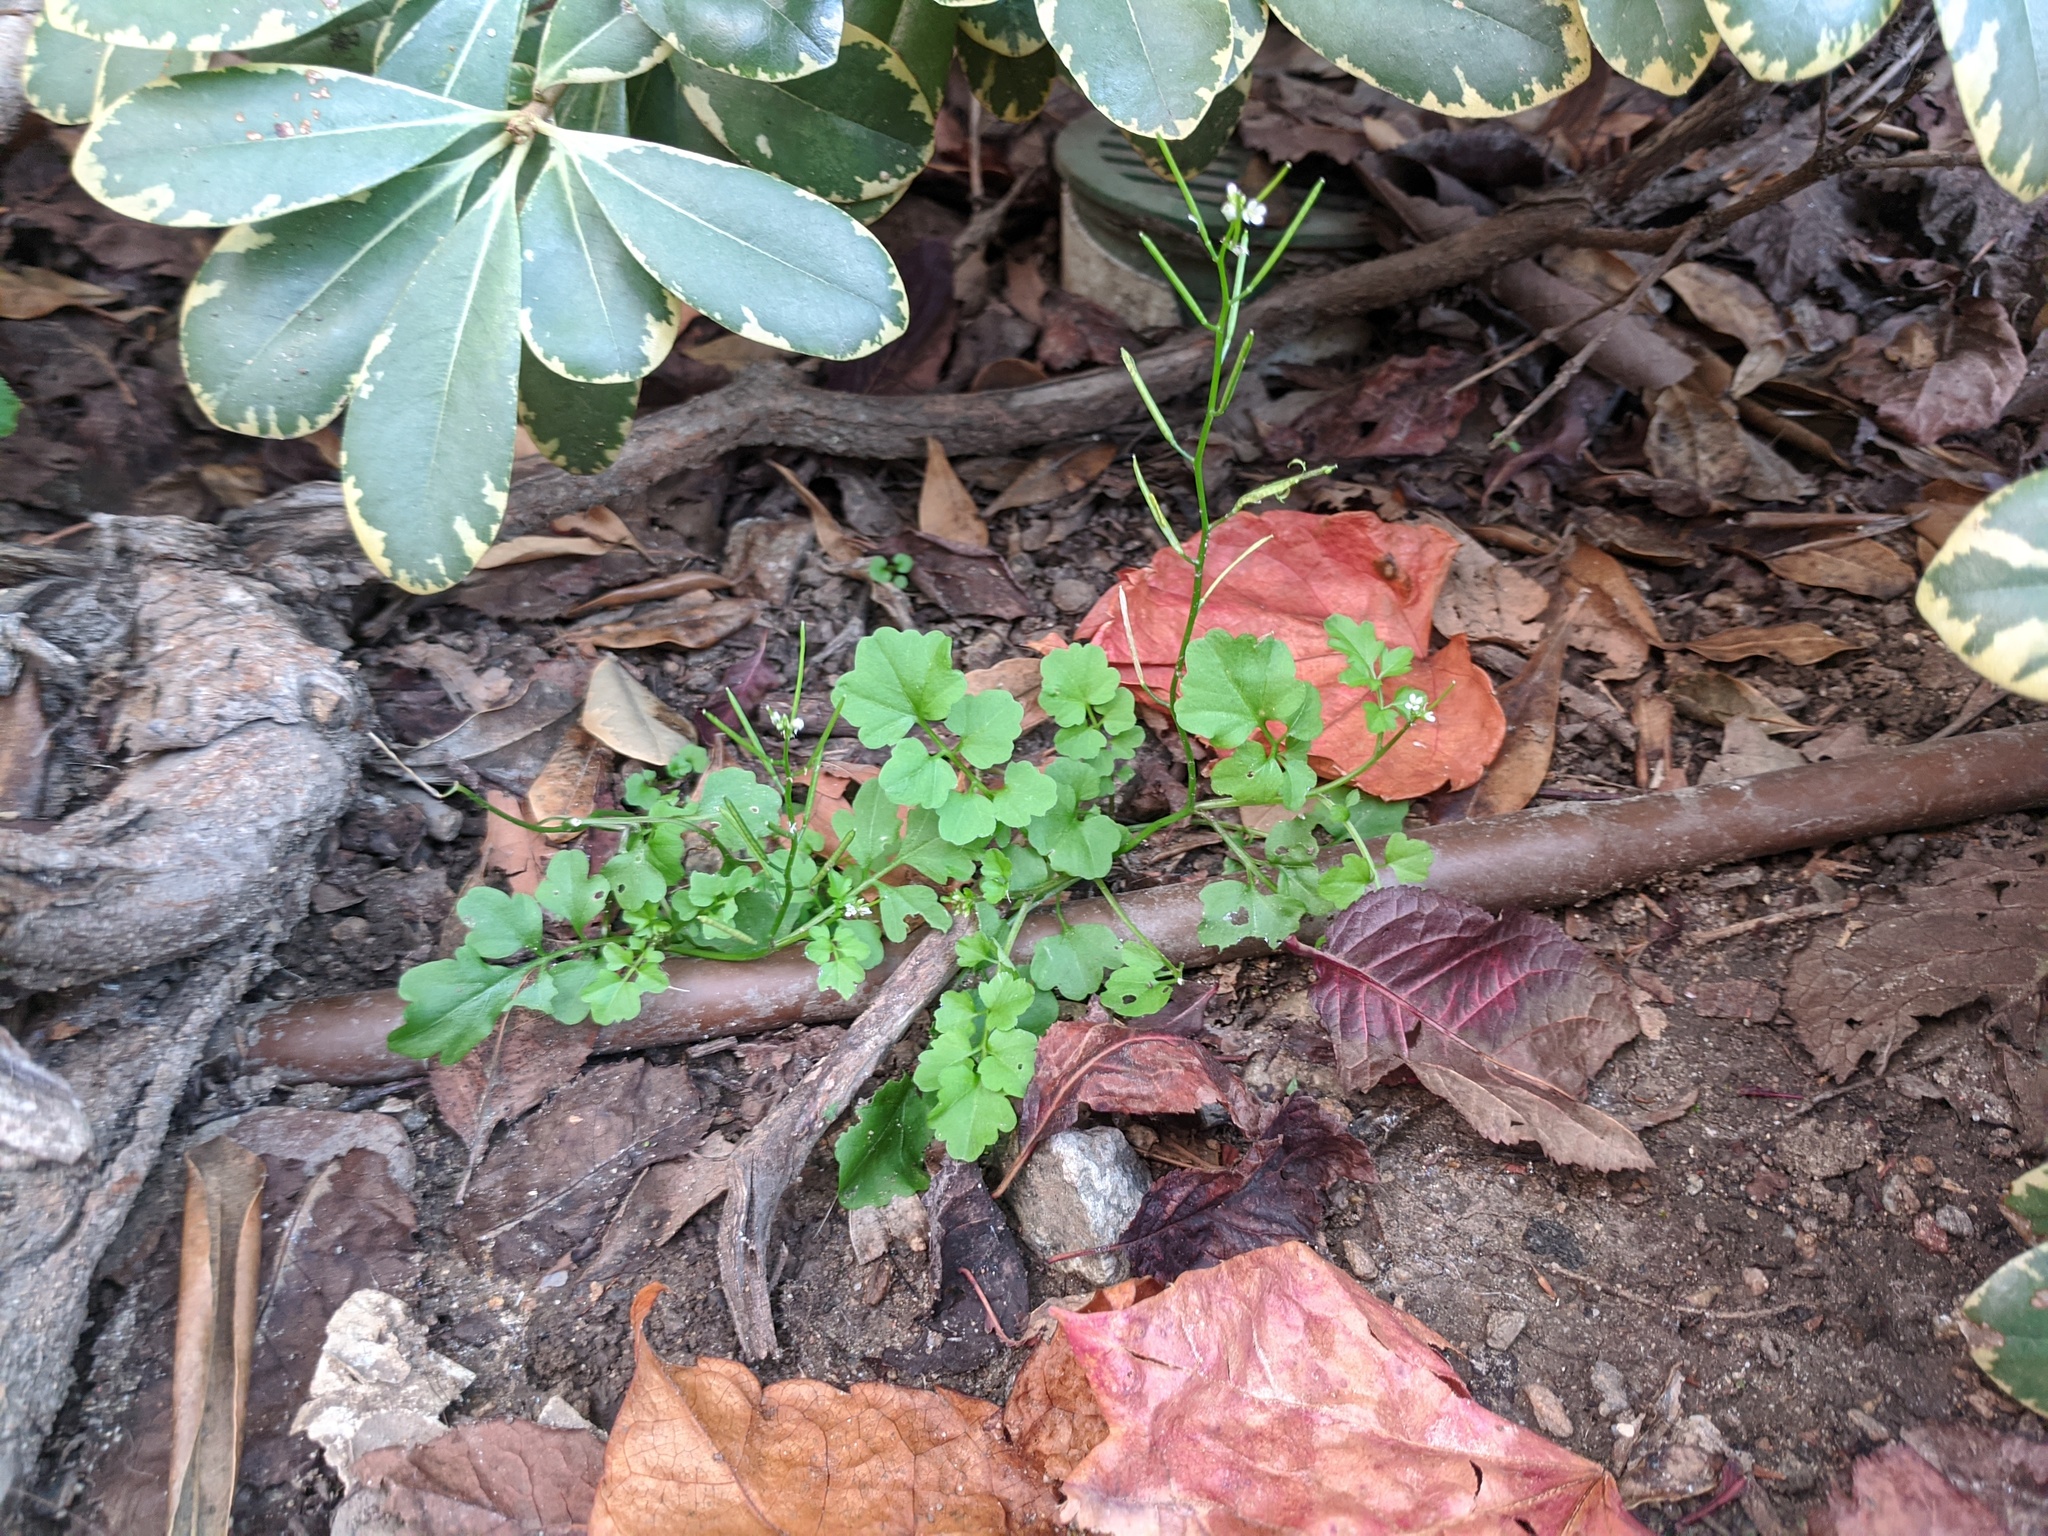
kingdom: Plantae
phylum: Tracheophyta
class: Magnoliopsida
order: Brassicales
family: Brassicaceae
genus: Cardamine
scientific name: Cardamine occulta
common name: Asian wavy bittercress
